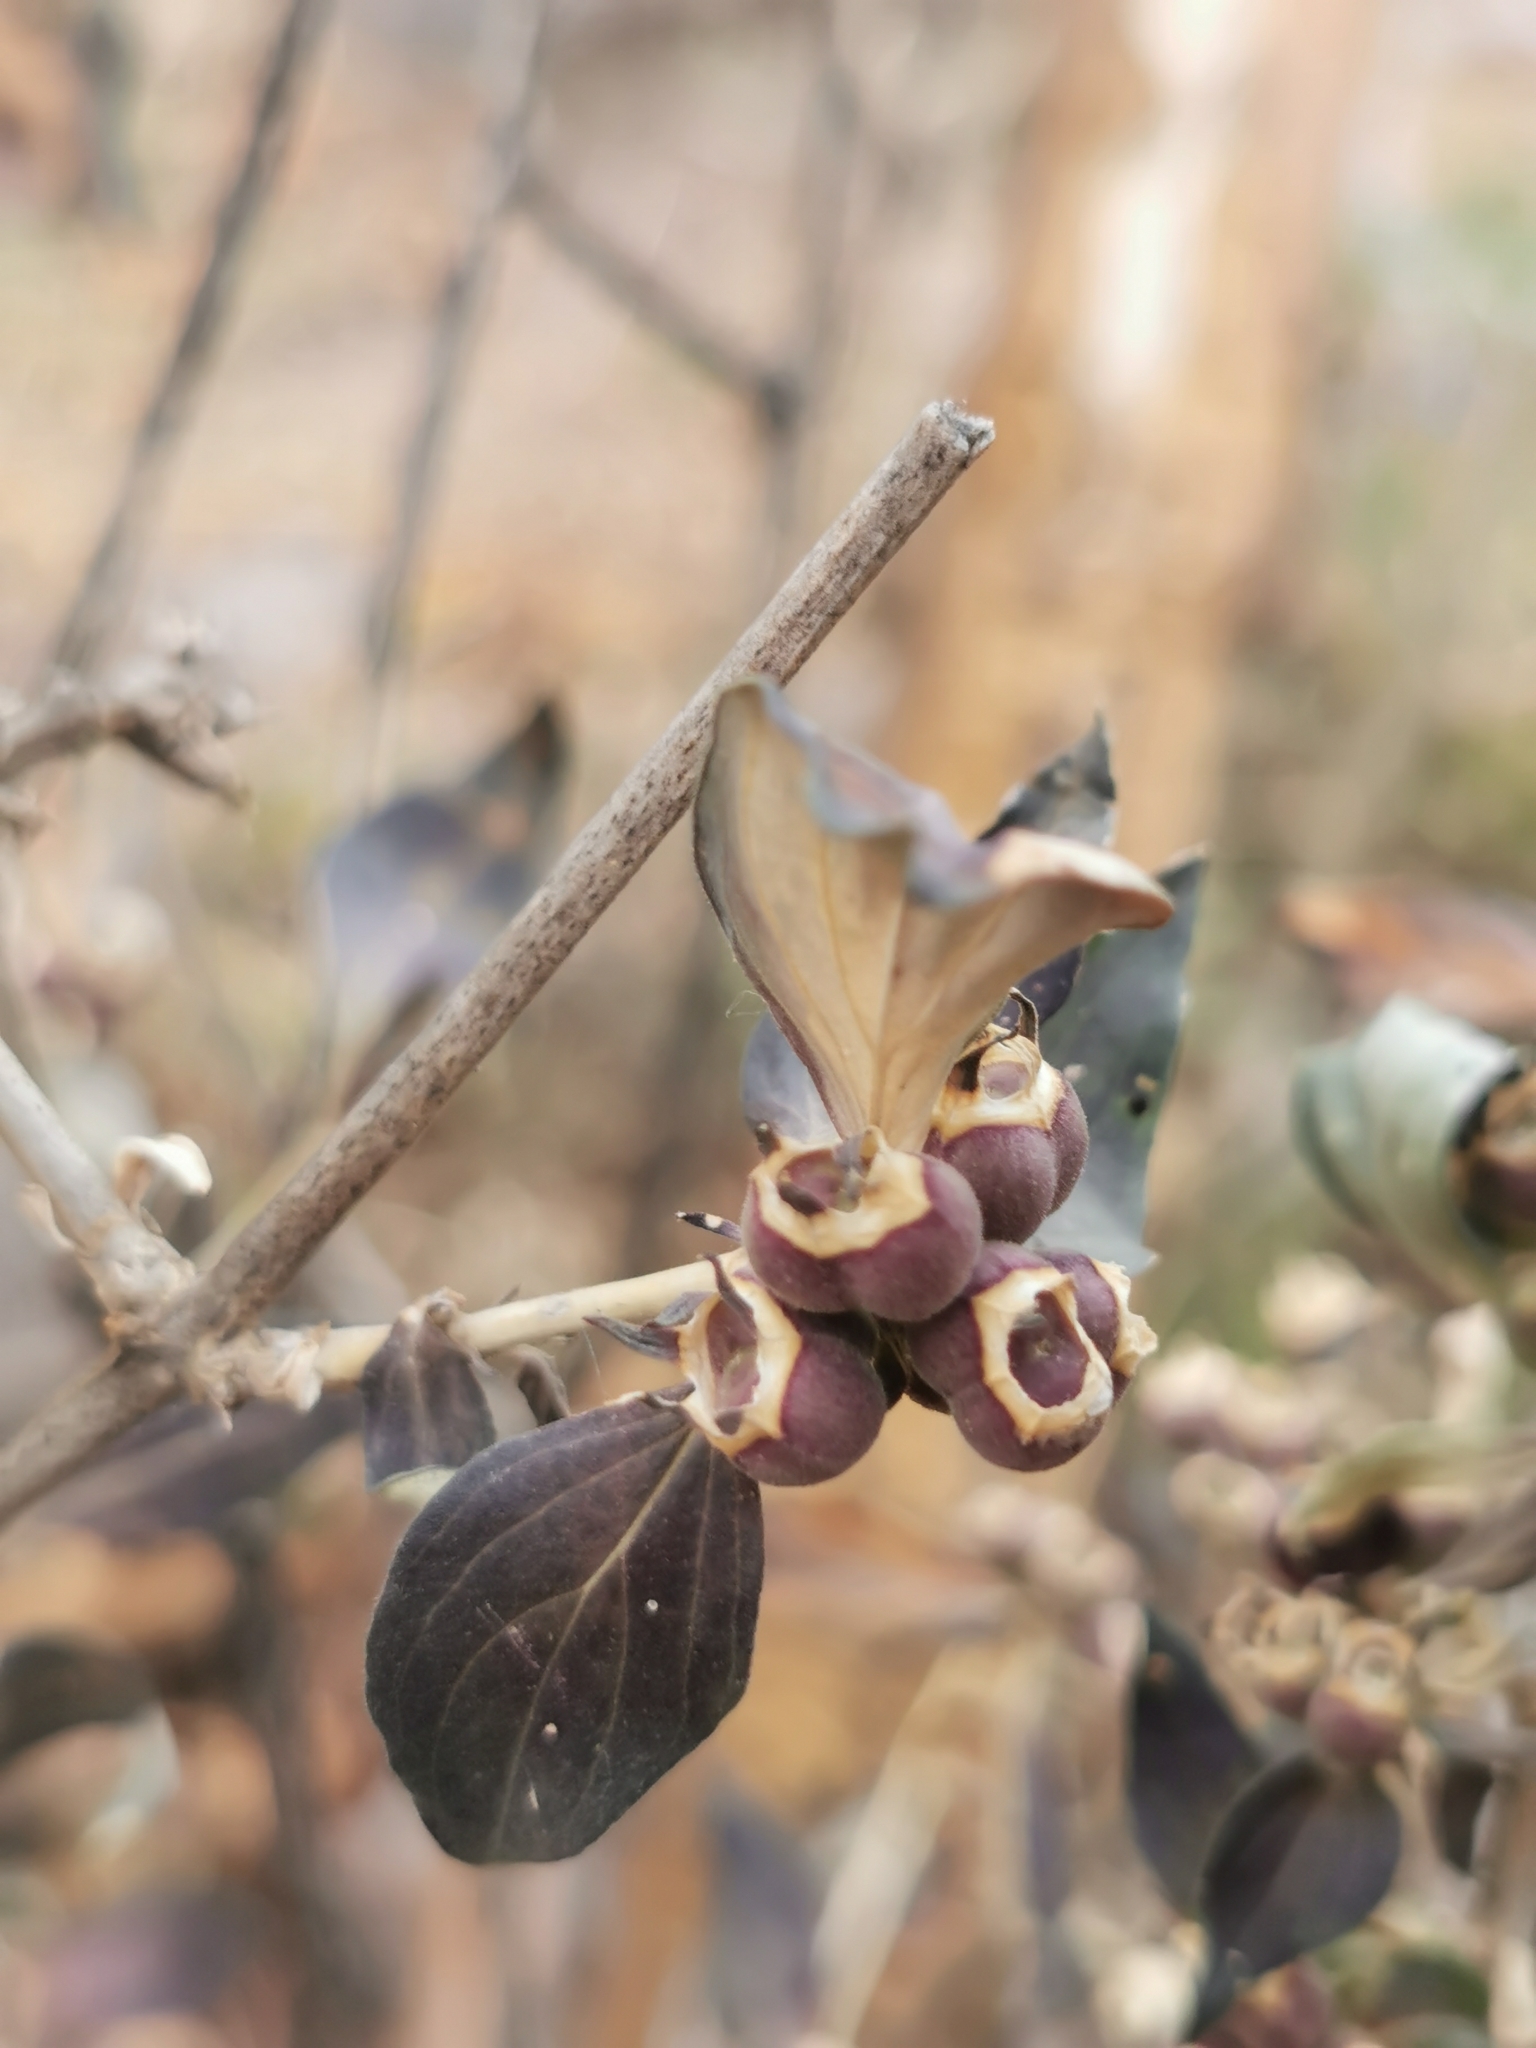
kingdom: Plantae
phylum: Tracheophyta
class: Magnoliopsida
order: Gentianales
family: Rubiaceae
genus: Bouvardia
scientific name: Bouvardia ternifolia
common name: Scarlet bouvardia
